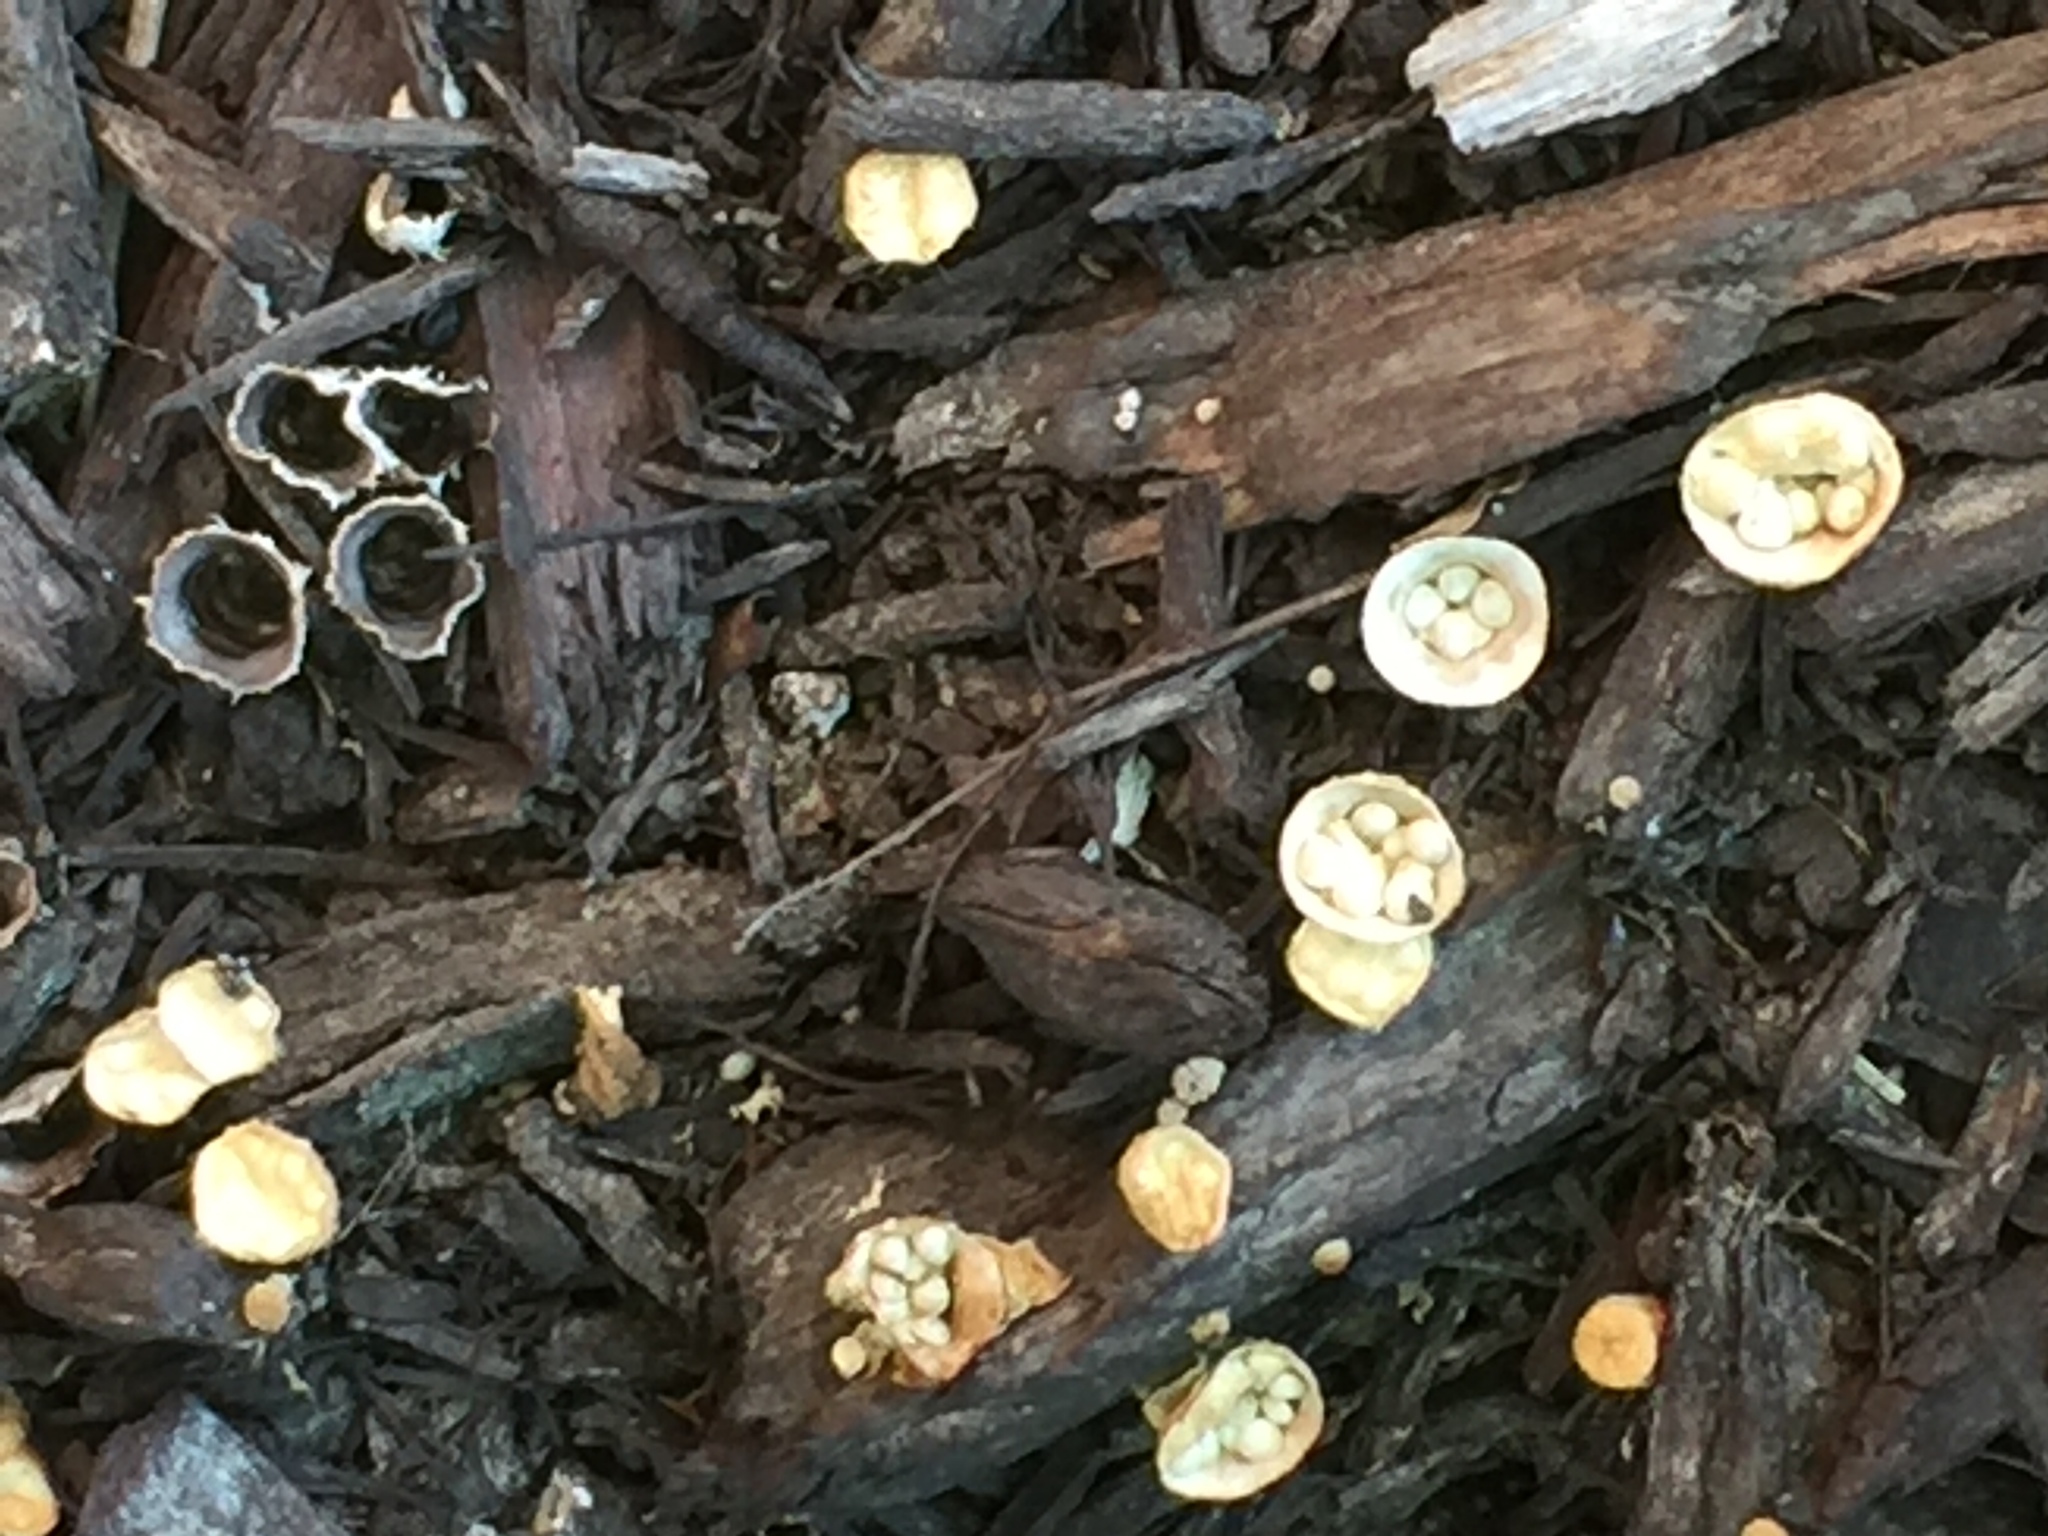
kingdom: Fungi
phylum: Basidiomycota
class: Agaricomycetes
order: Agaricales
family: Nidulariaceae
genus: Crucibulum
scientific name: Crucibulum laeve
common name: Common bird's nest
